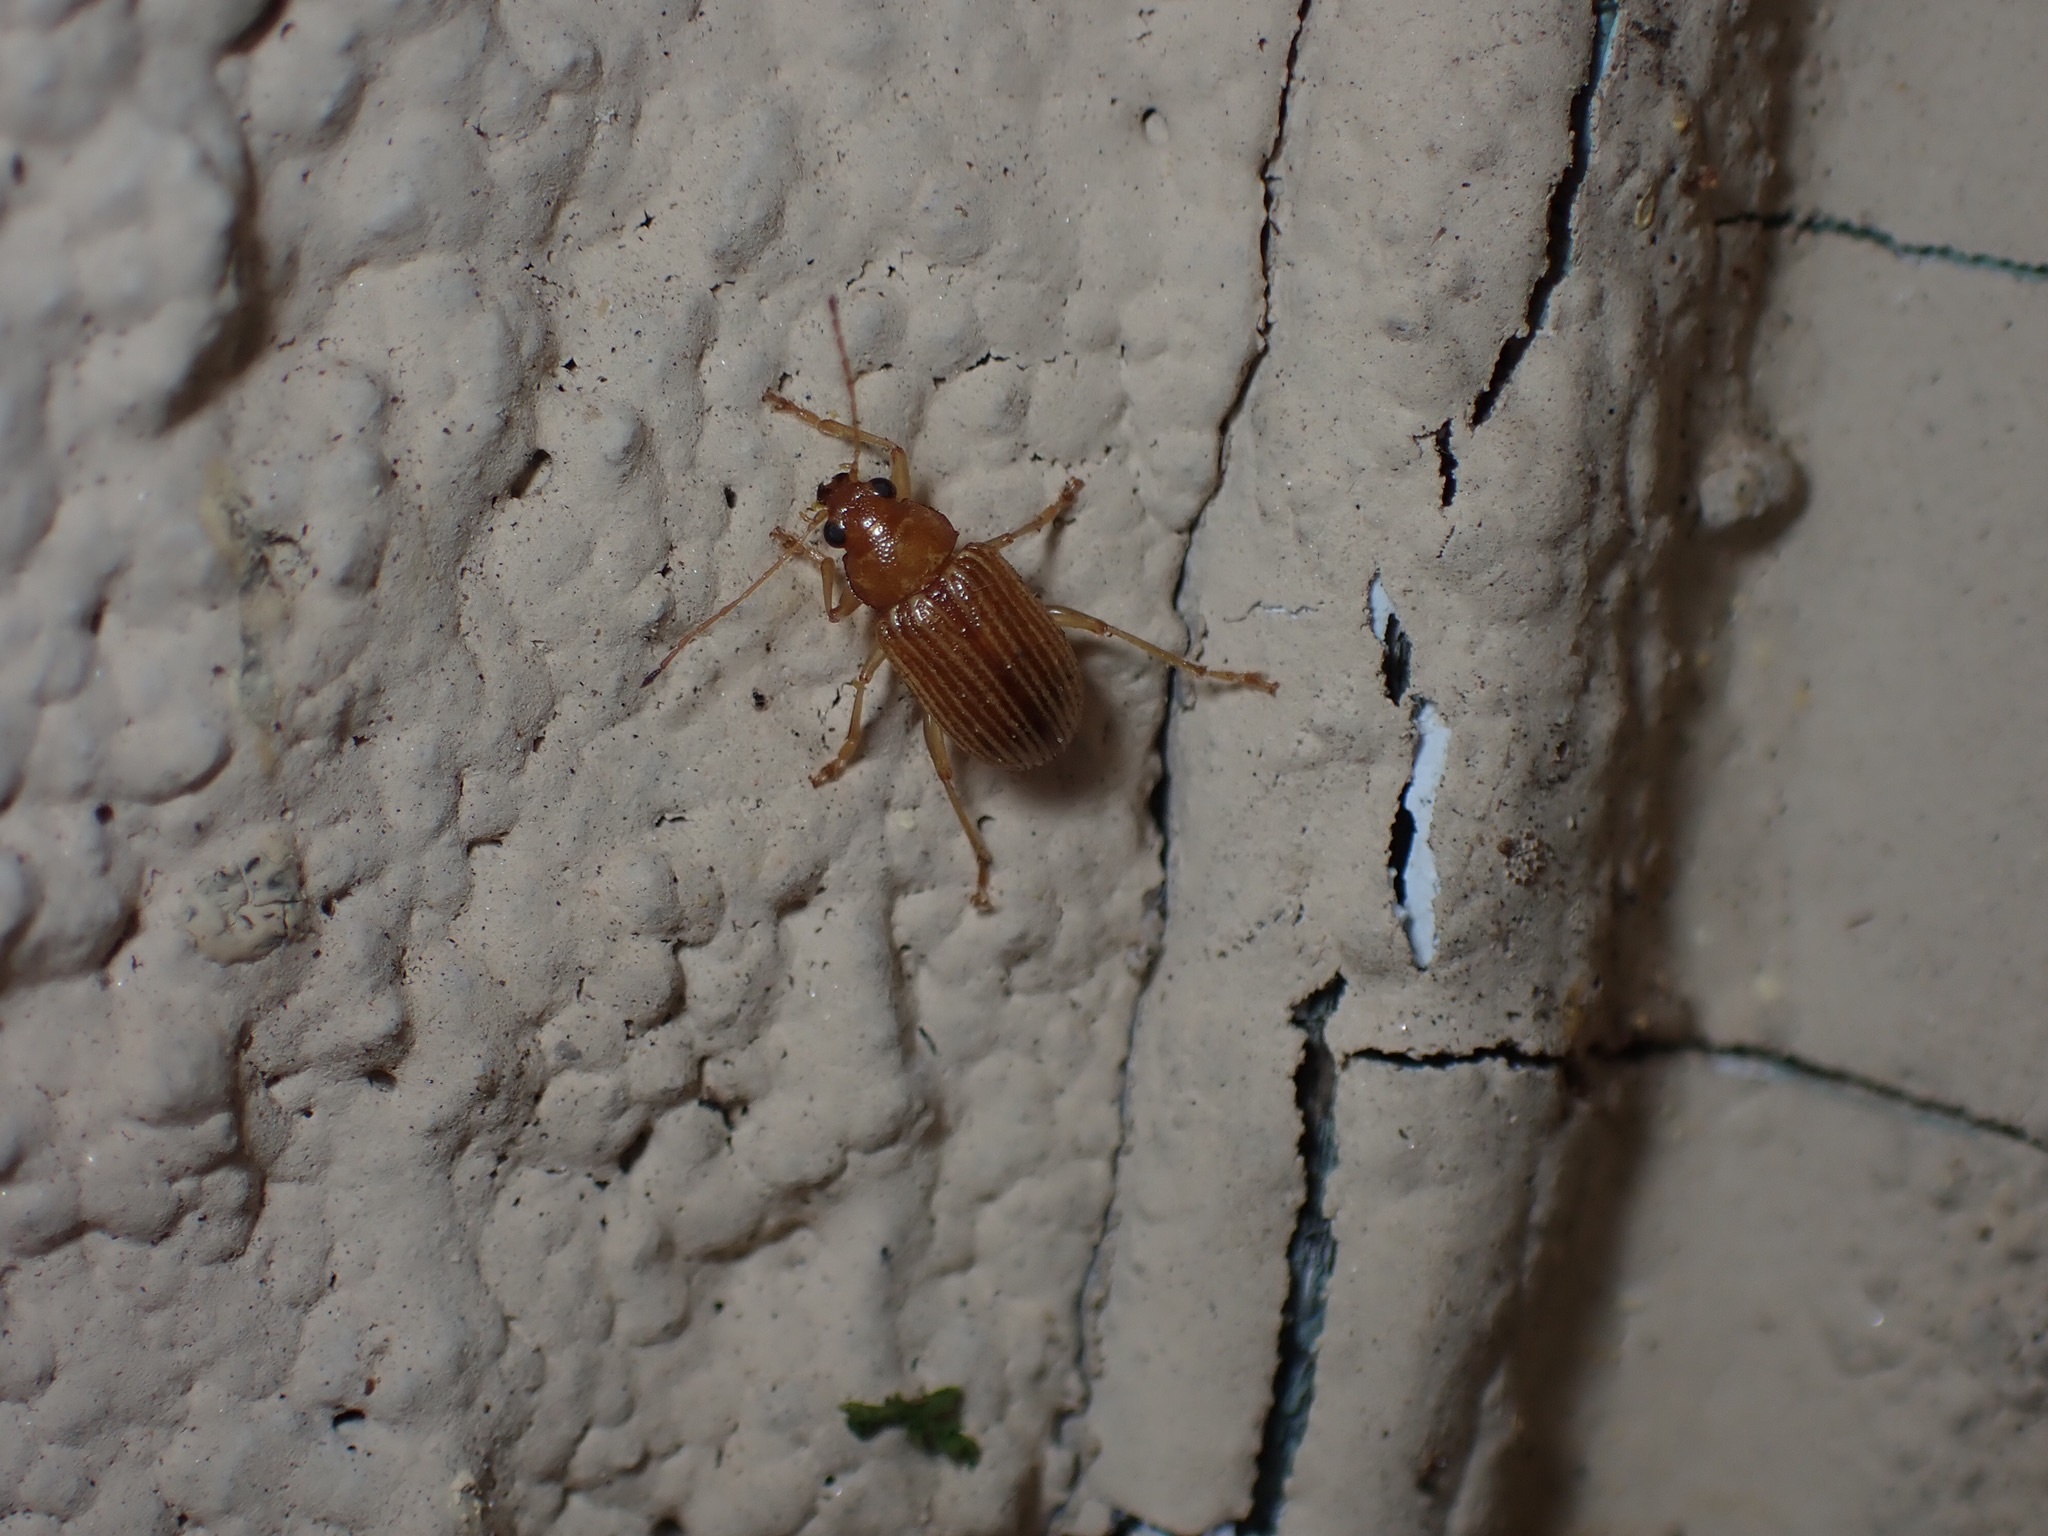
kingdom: Animalia
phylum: Arthropoda
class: Insecta
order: Coleoptera
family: Chrysomelidae
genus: Colaspis
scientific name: Colaspis brunnea
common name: Grape colaspis
